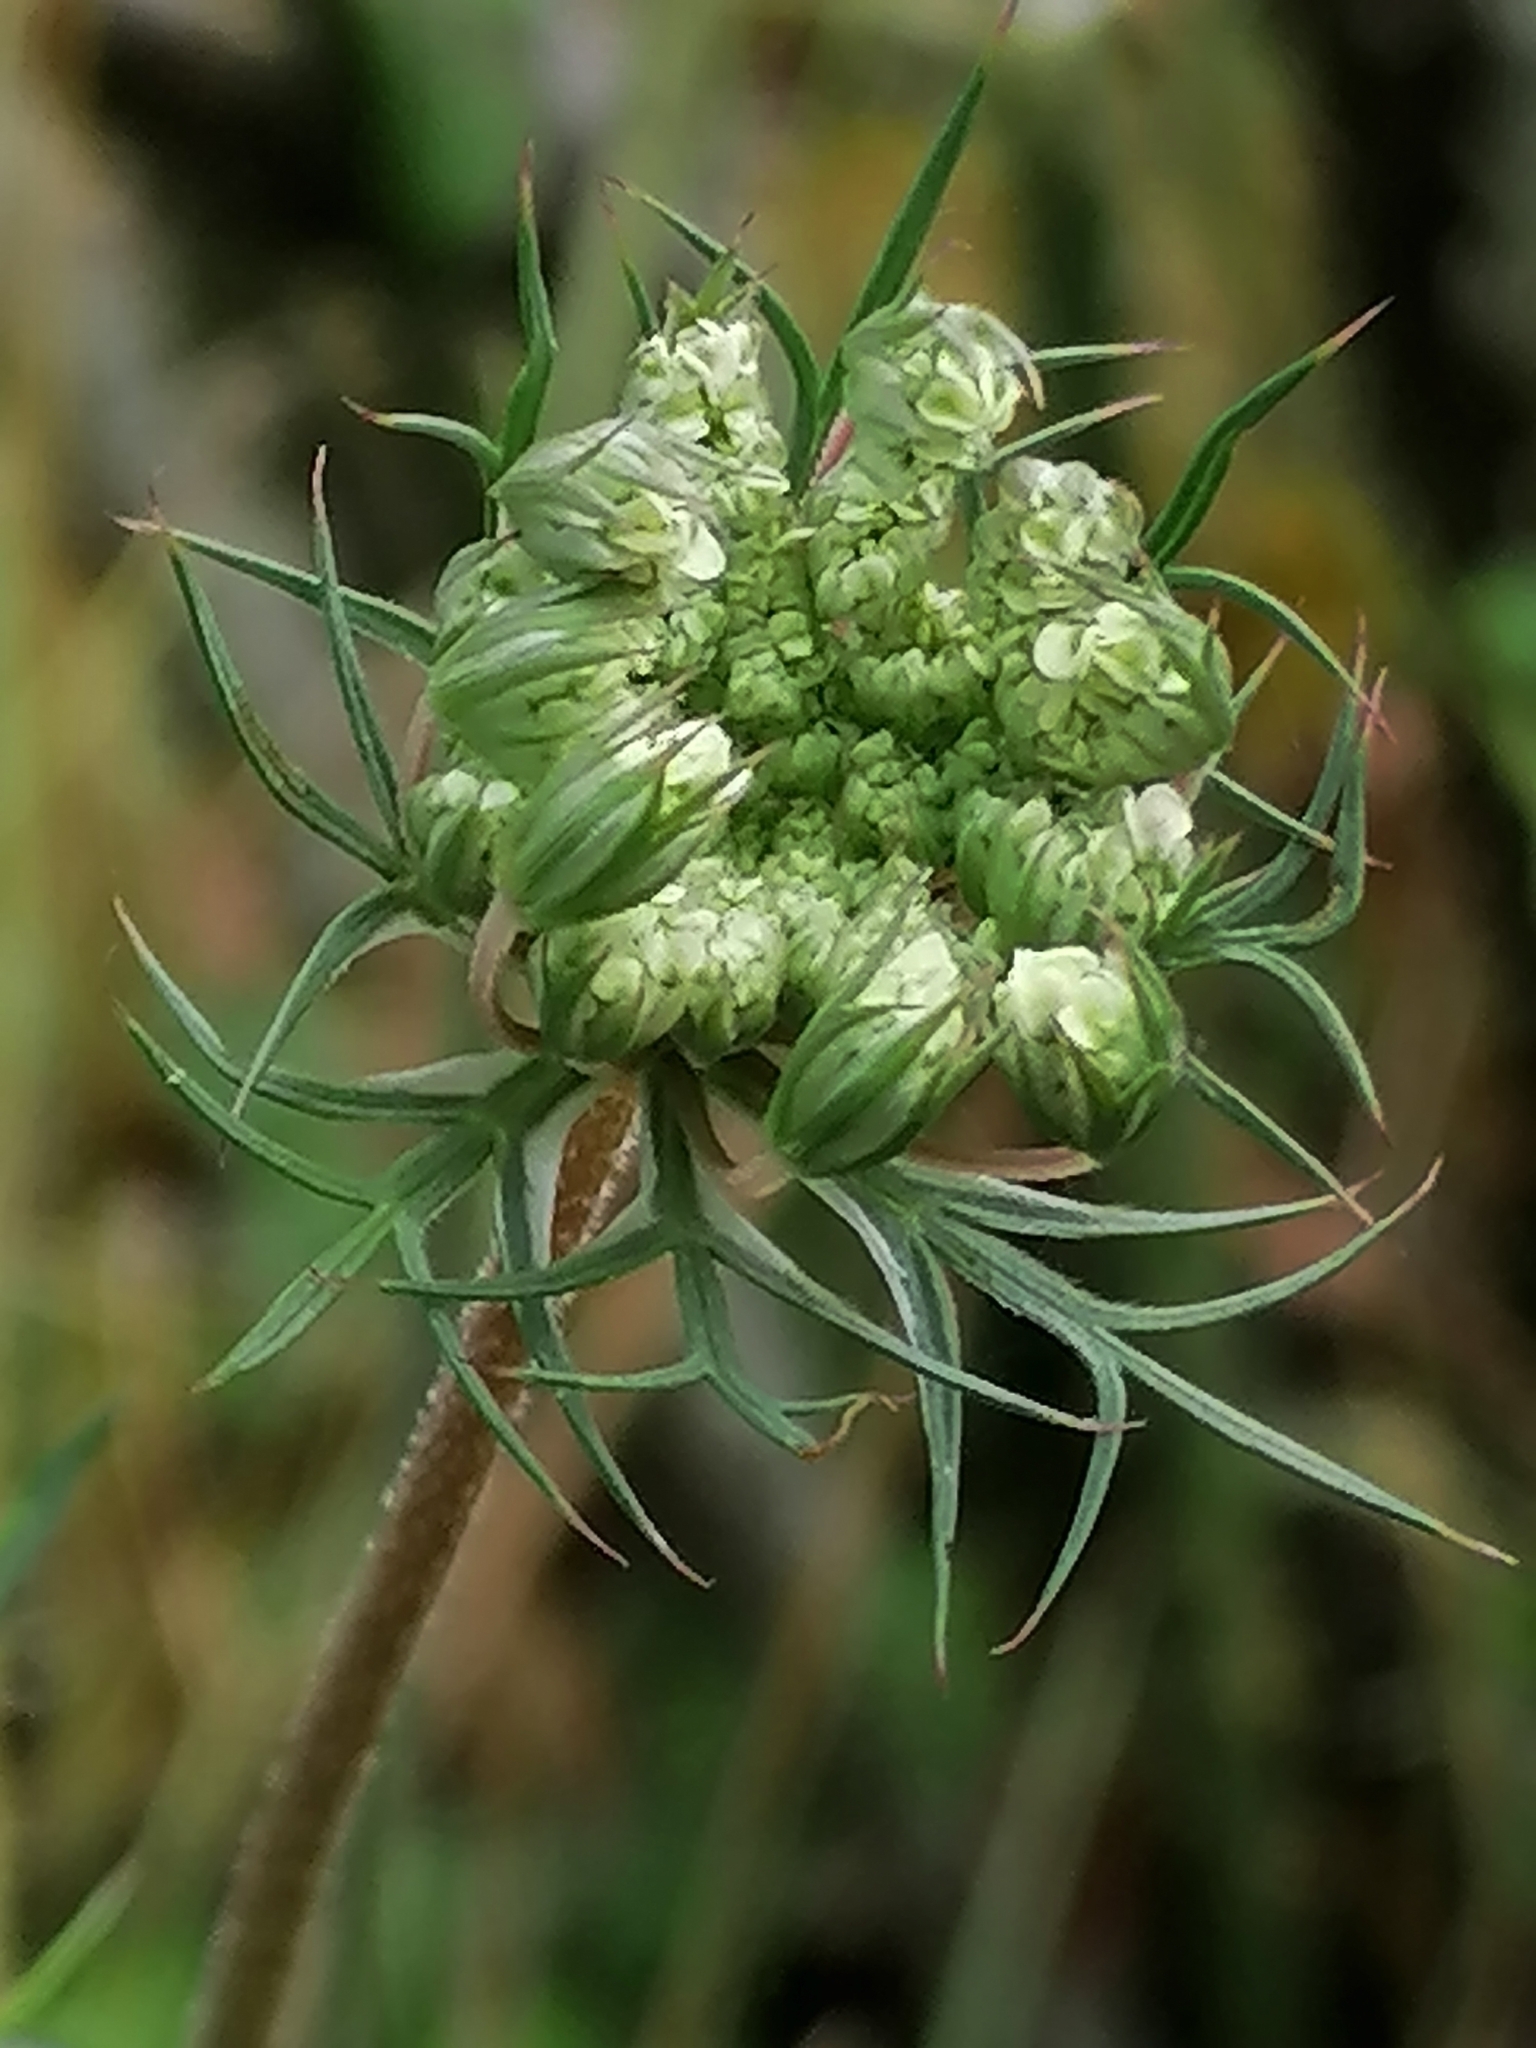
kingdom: Plantae
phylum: Tracheophyta
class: Magnoliopsida
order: Apiales
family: Apiaceae
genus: Daucus
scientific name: Daucus carota
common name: Wild carrot
